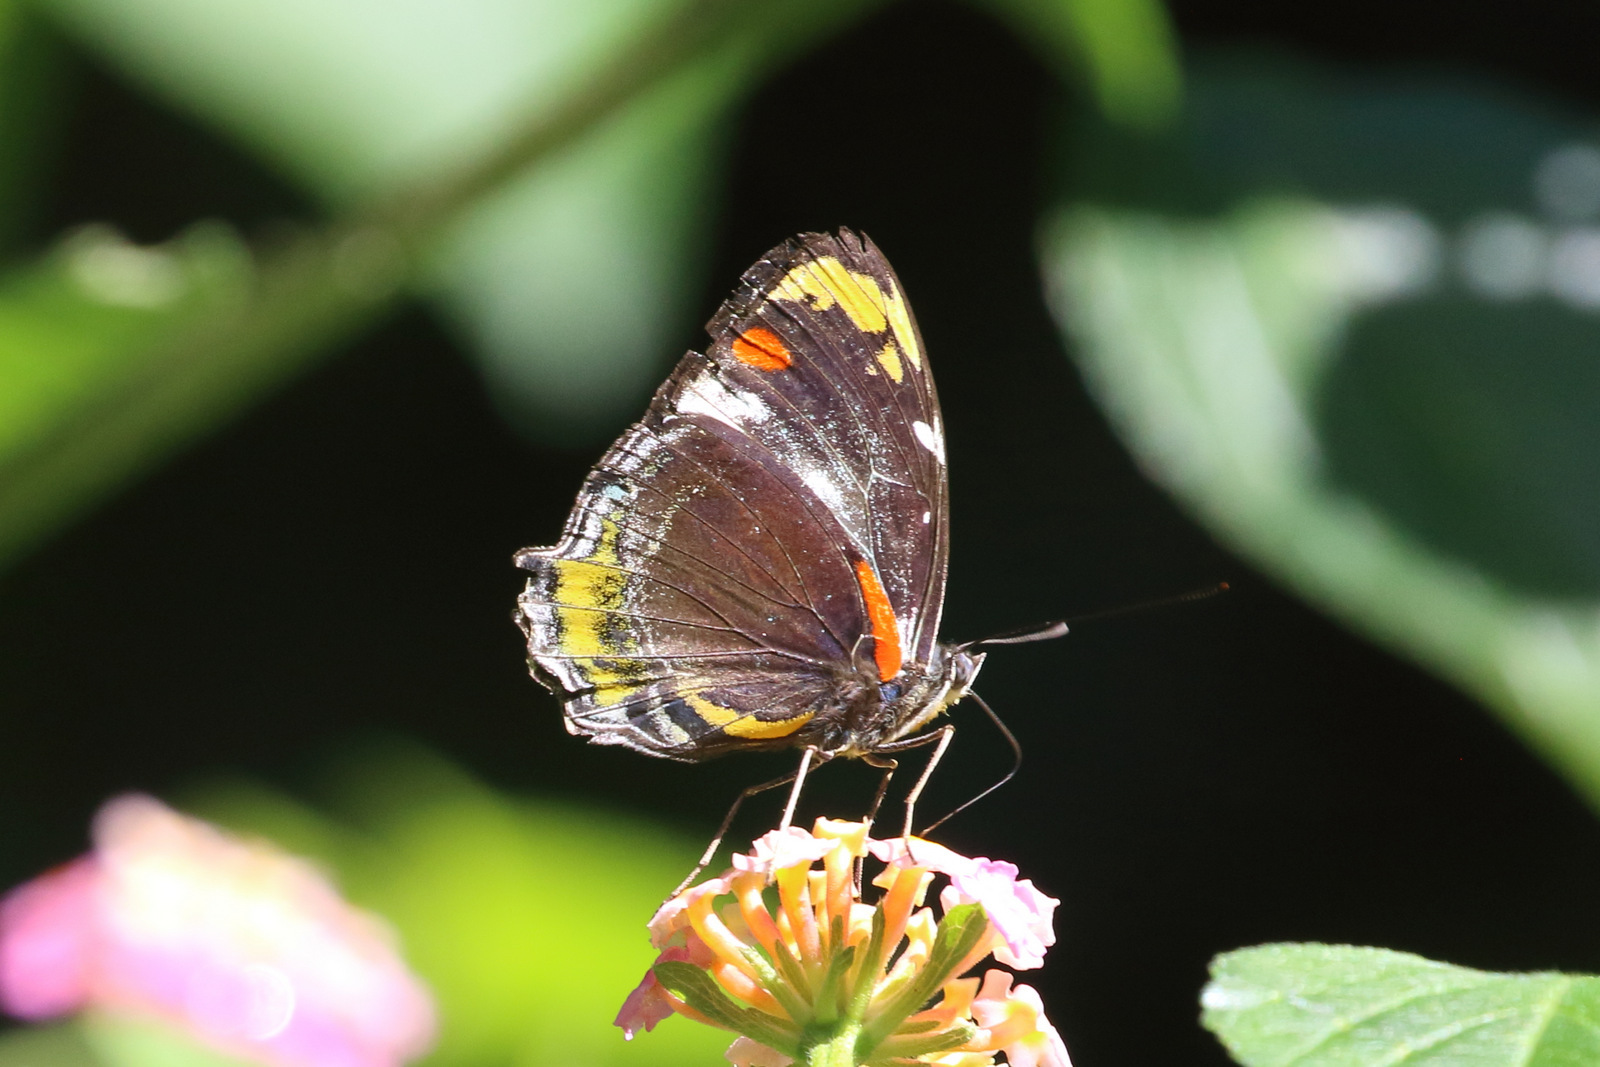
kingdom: Animalia
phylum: Arthropoda
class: Insecta
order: Lepidoptera
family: Nymphalidae
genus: Mynes
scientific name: Mynes geoffroyi
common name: Jezebel nymph
